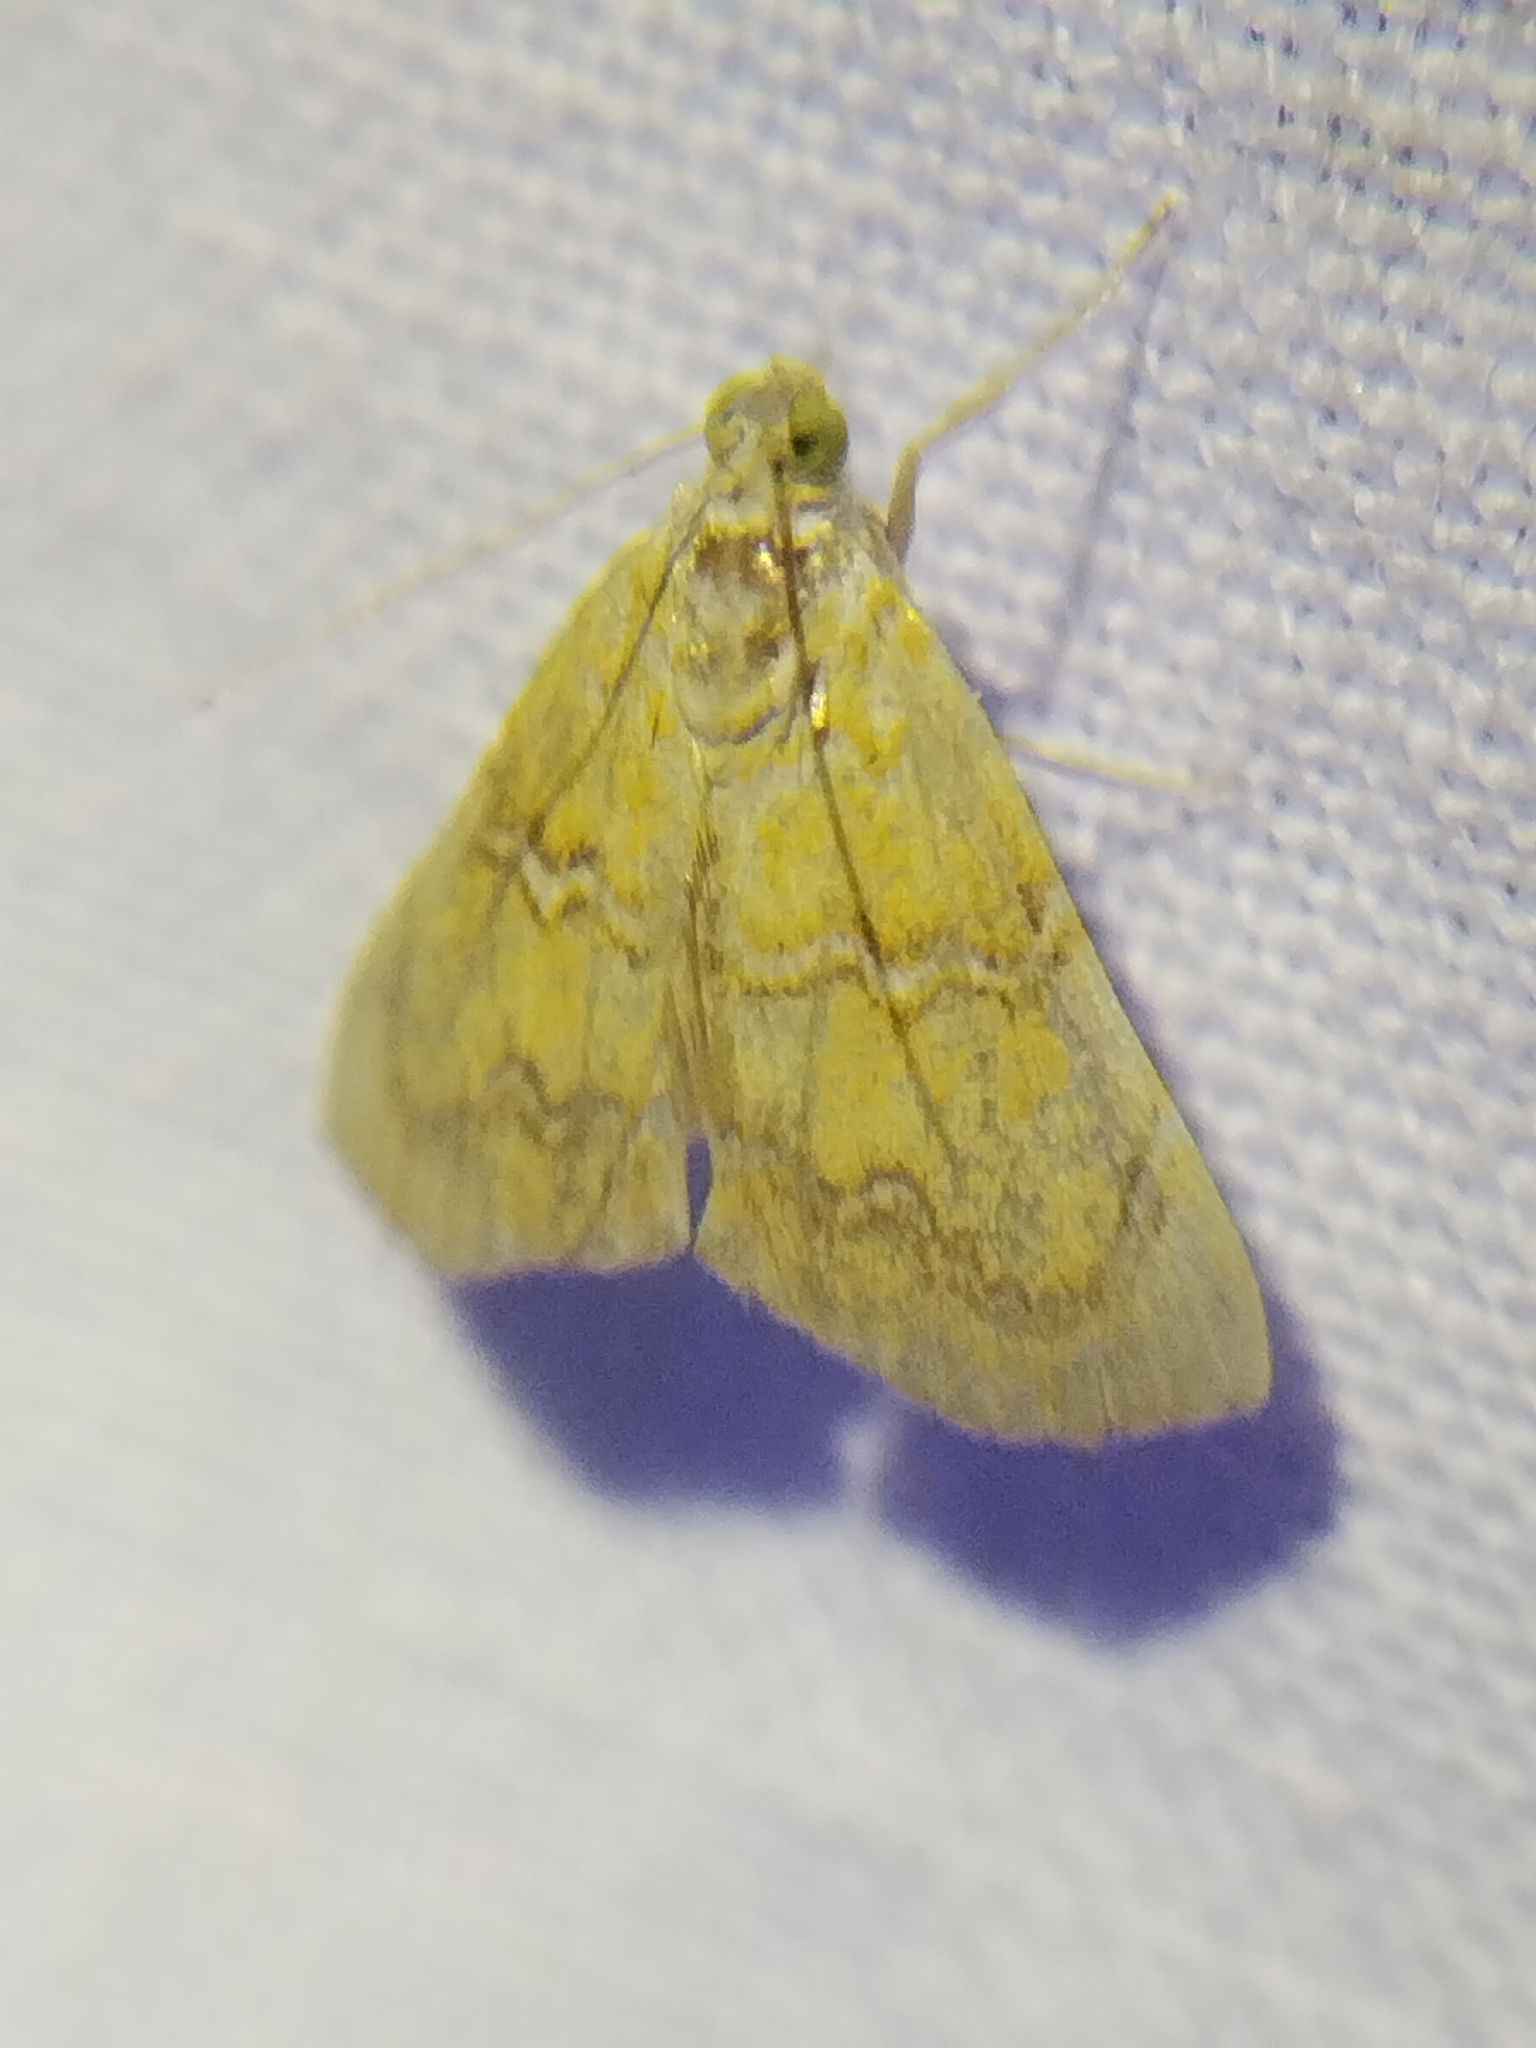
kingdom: Animalia
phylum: Arthropoda
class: Insecta
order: Lepidoptera
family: Crambidae
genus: Glaphyria
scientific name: Glaphyria sesquistrialis
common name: White-roped glaphyria
